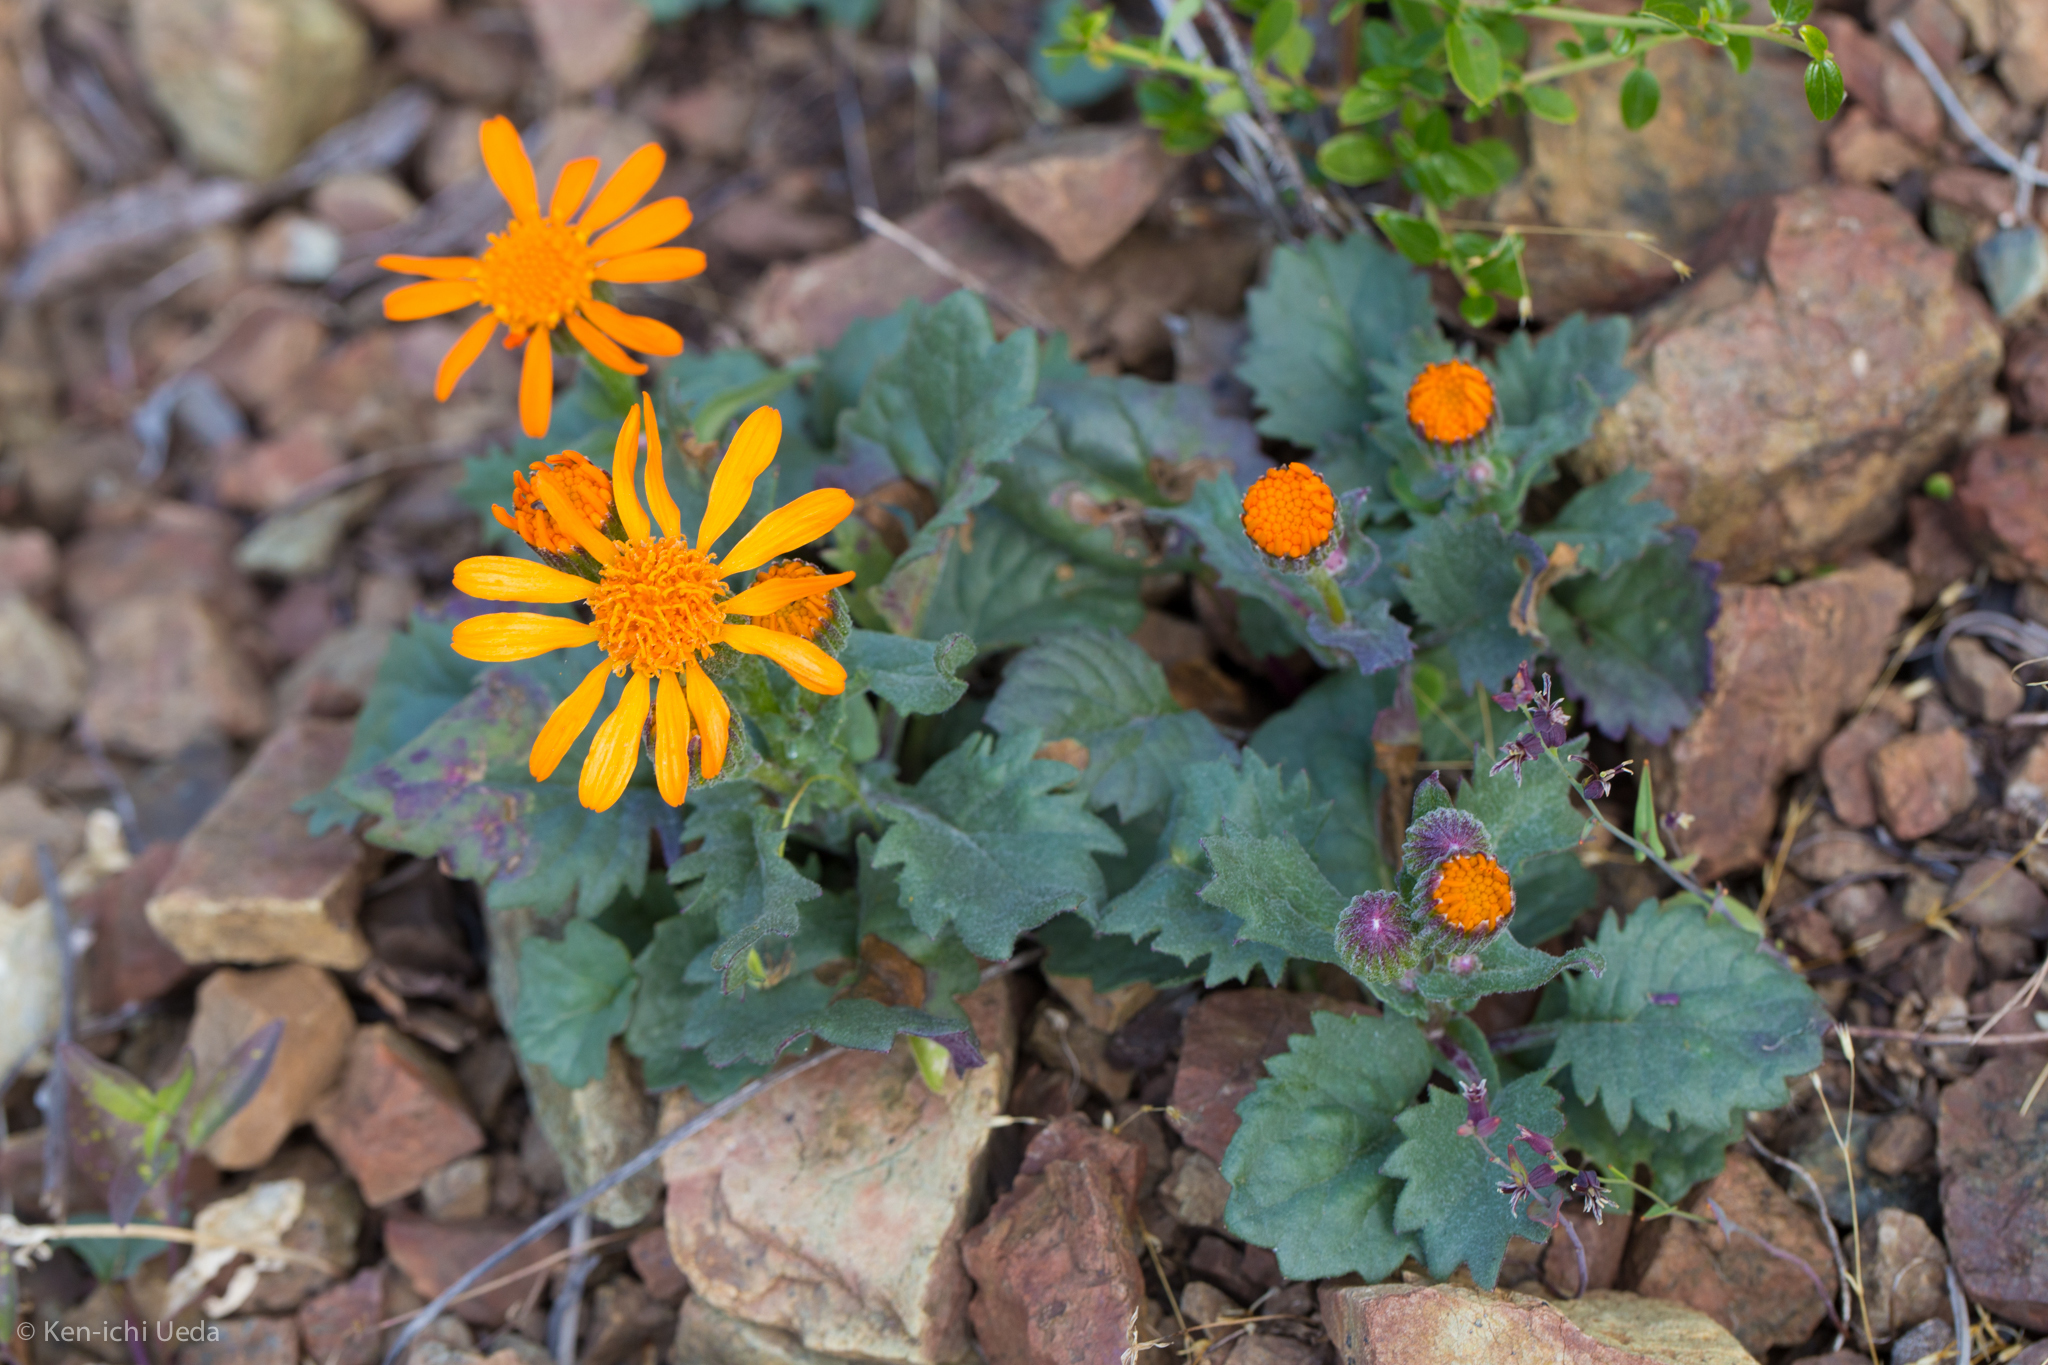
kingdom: Plantae
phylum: Tracheophyta
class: Magnoliopsida
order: Asterales
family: Asteraceae
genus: Packera
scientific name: Packera greenei
